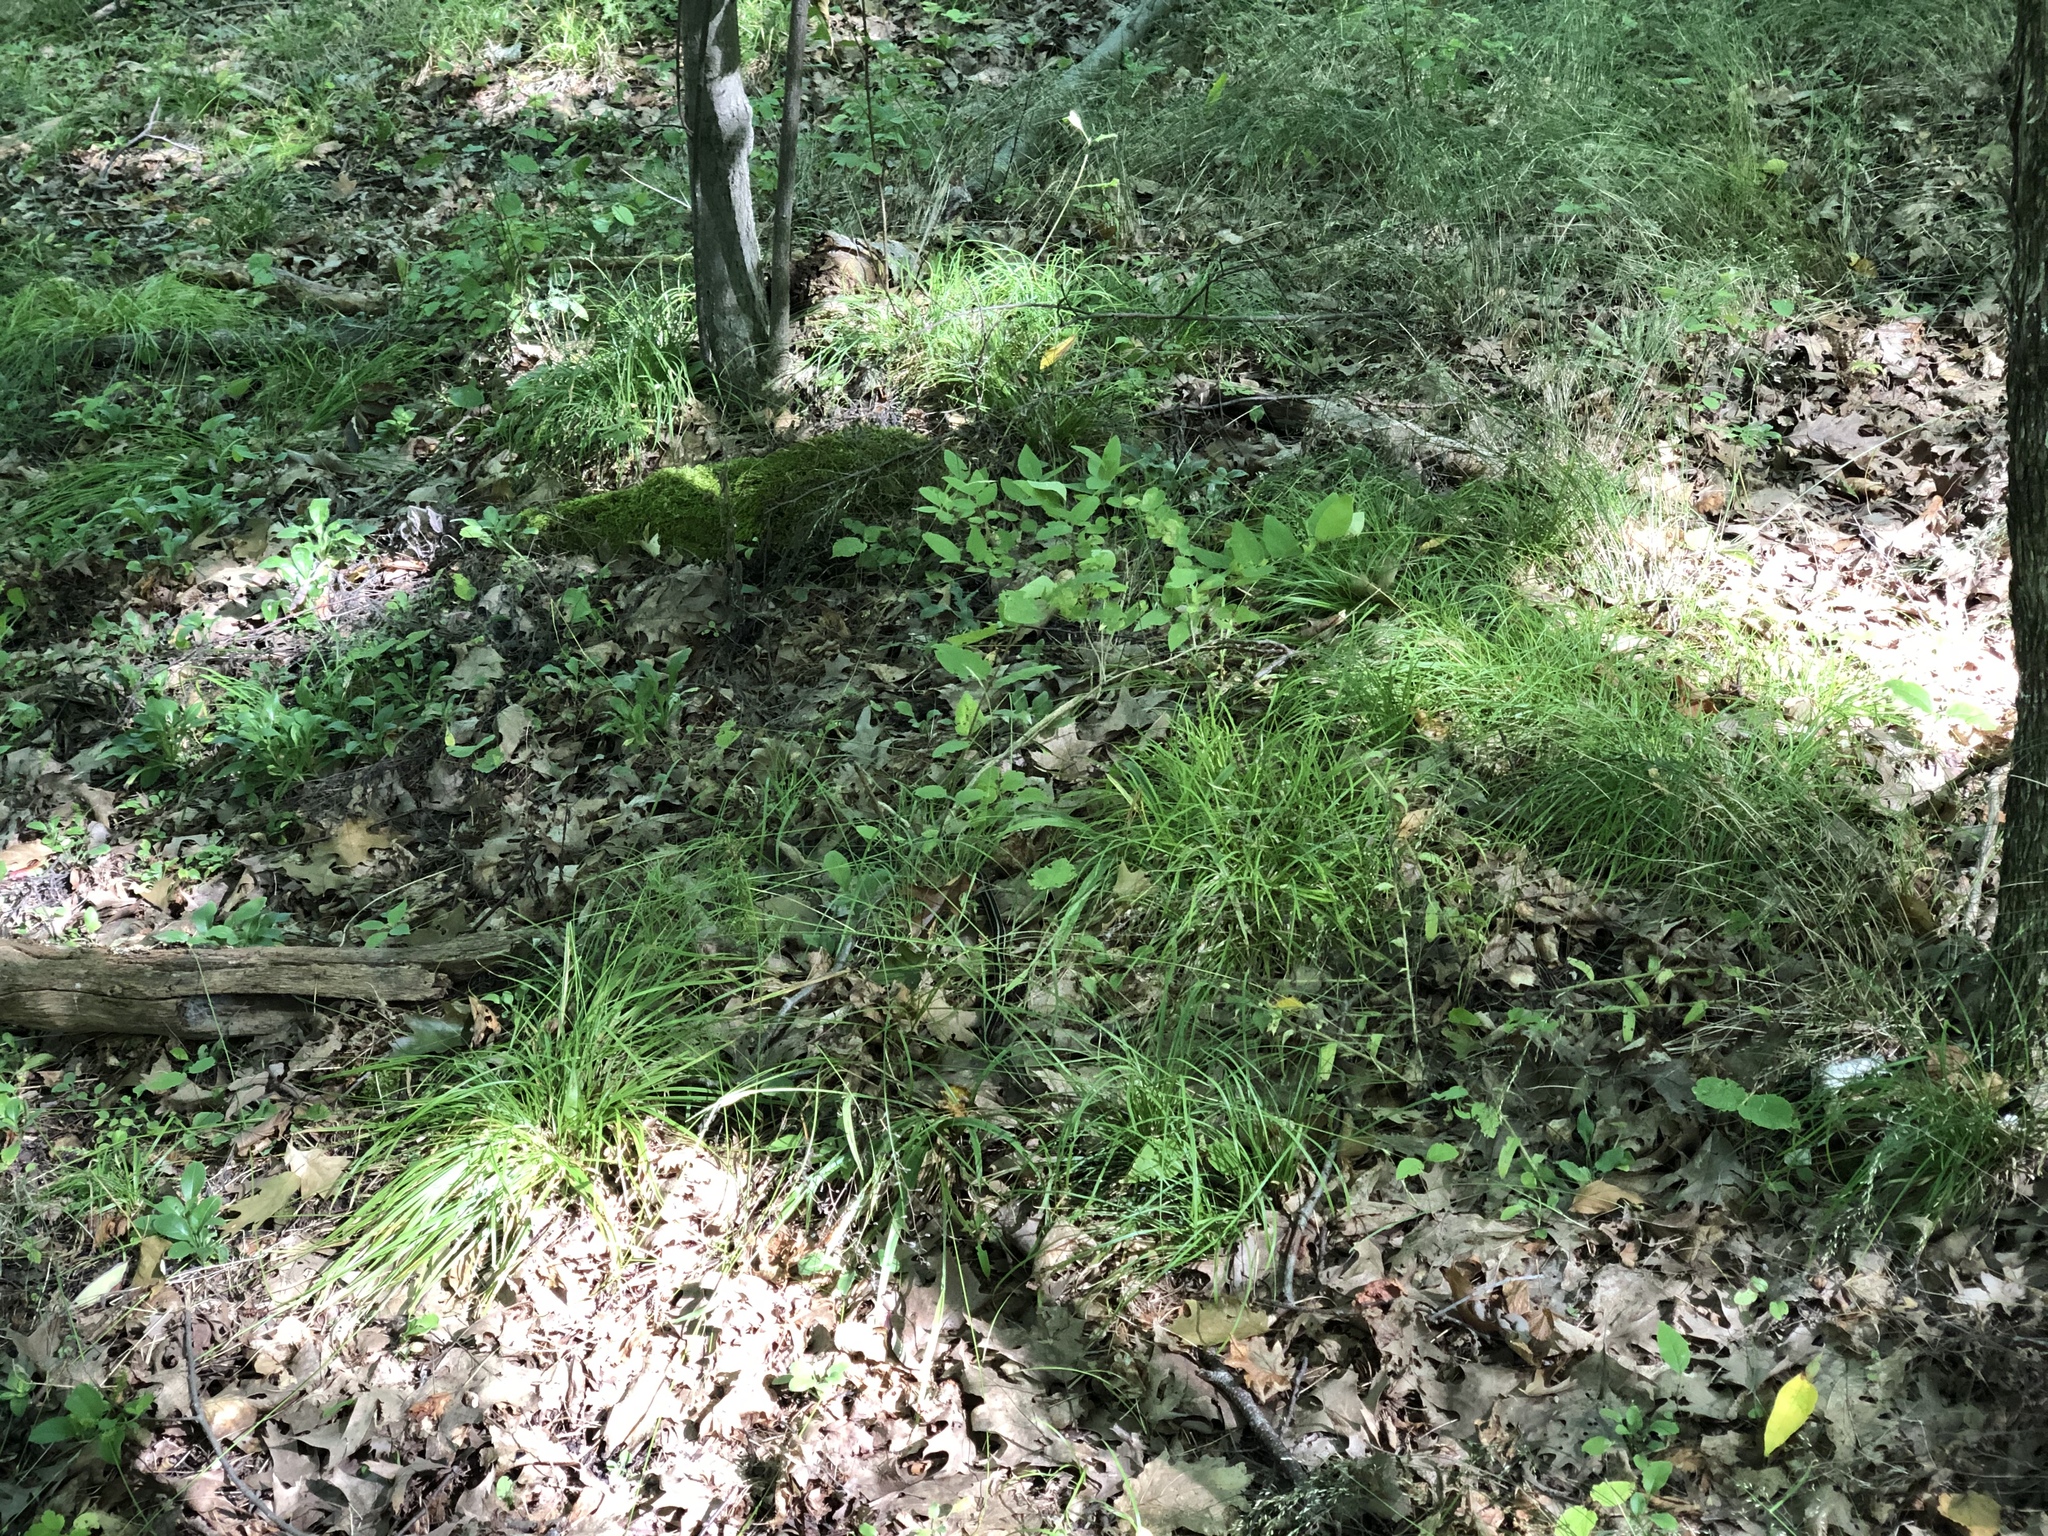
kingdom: Animalia
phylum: Chordata
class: Squamata
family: Colubridae
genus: Thamnophis
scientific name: Thamnophis sirtalis
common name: Common garter snake
